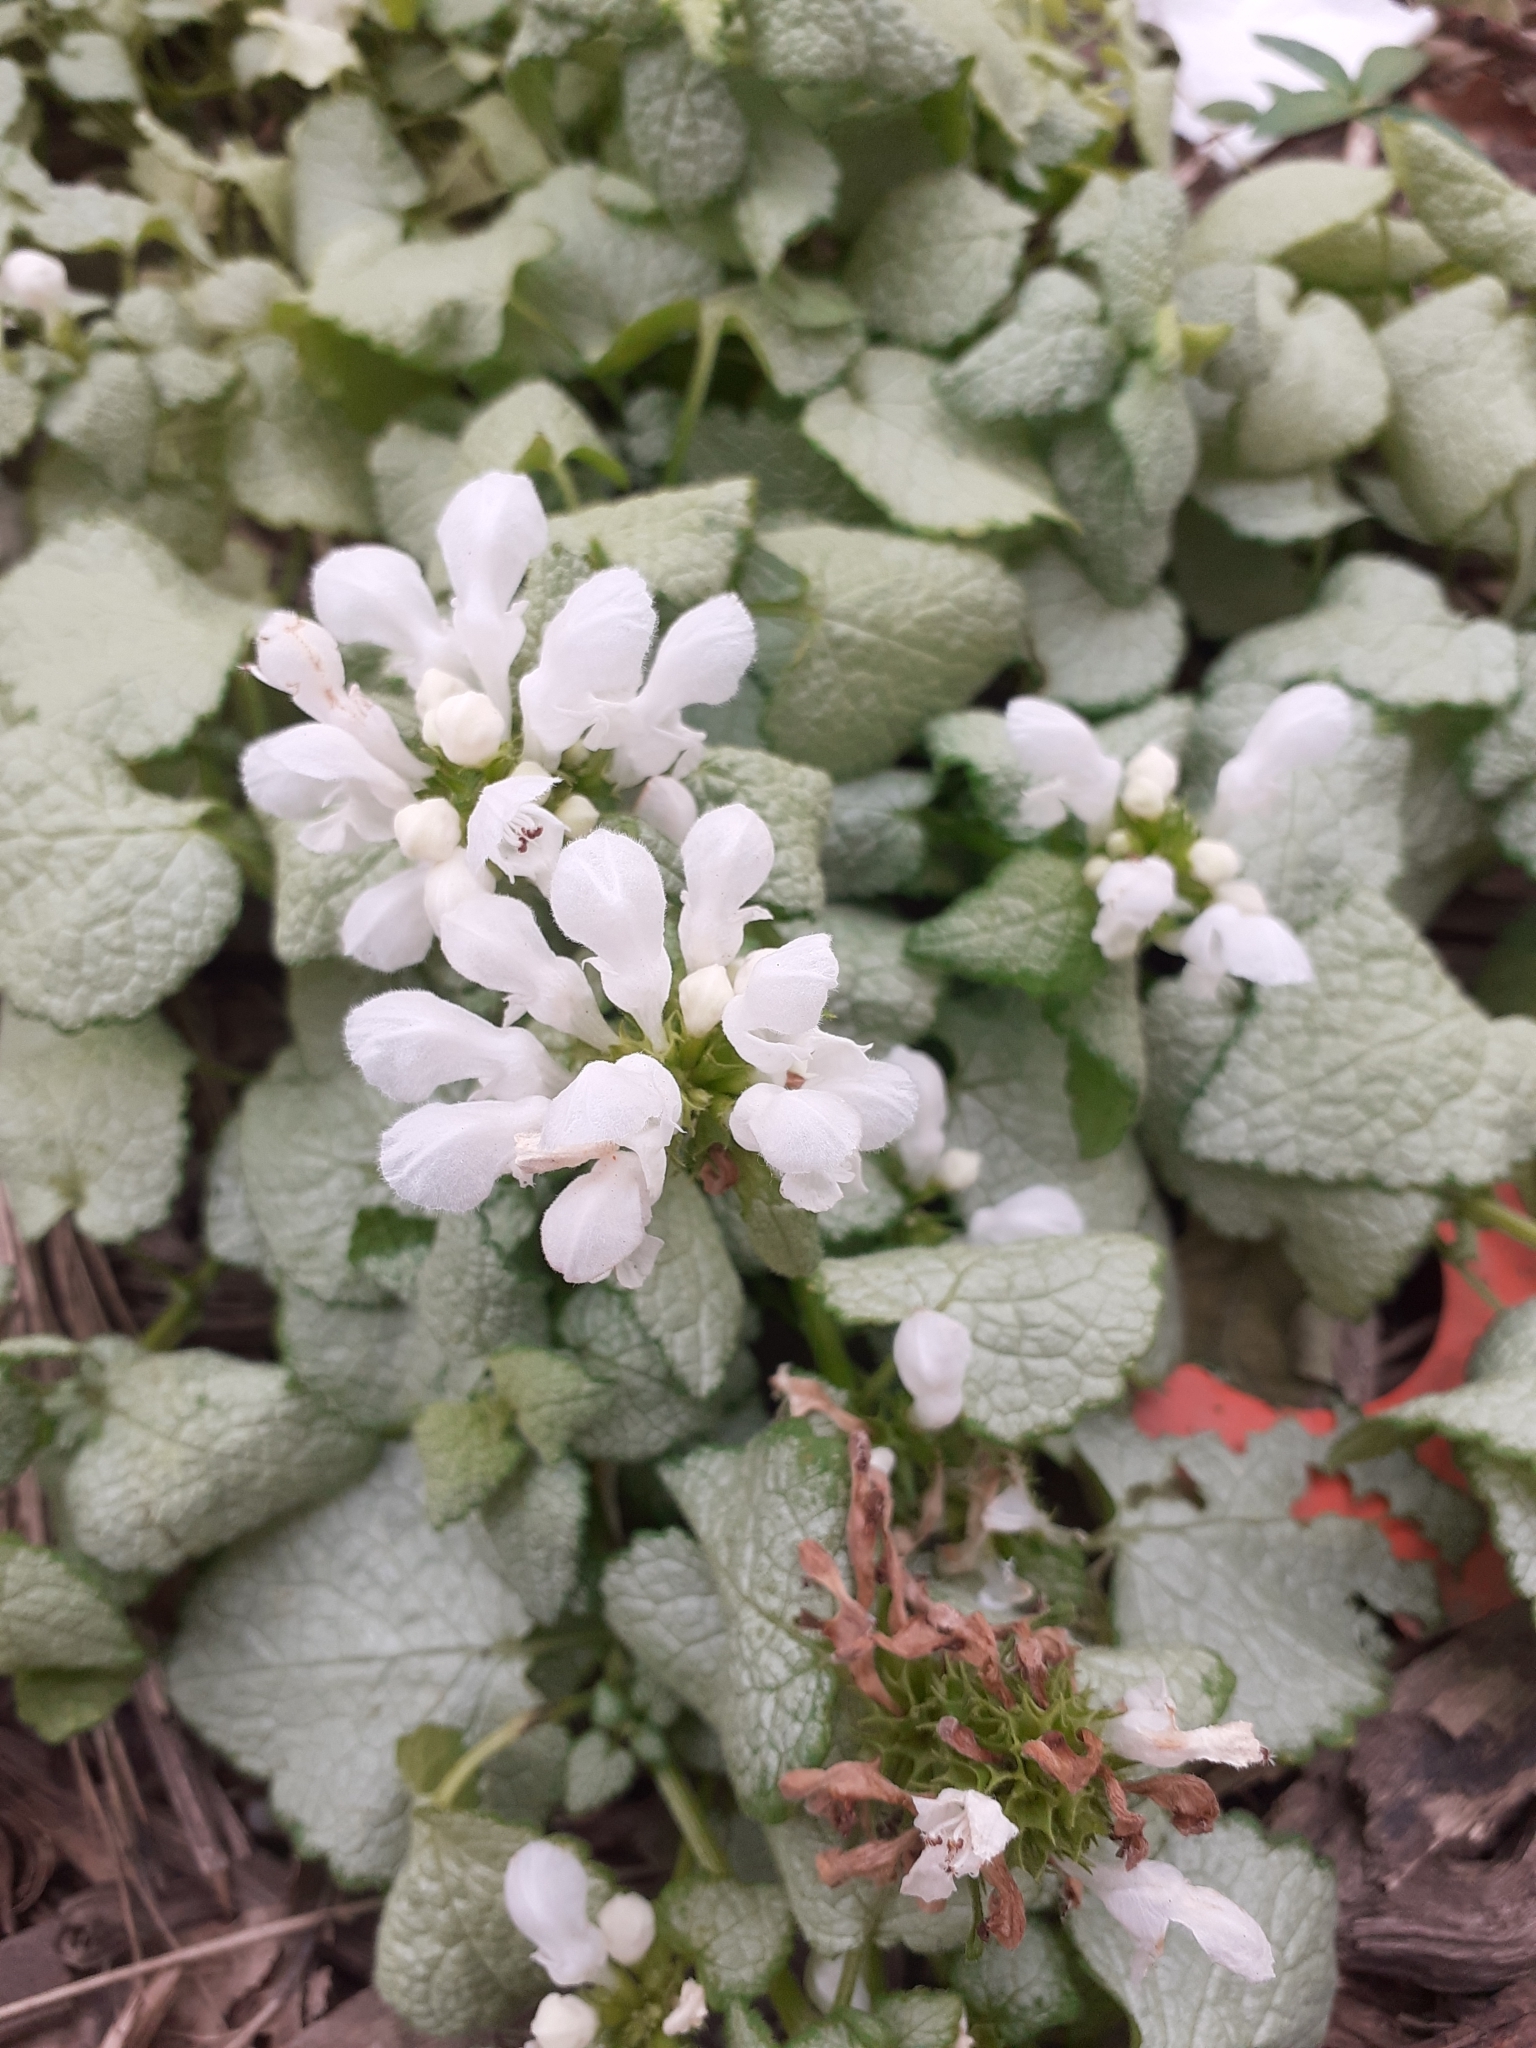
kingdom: Plantae
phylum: Tracheophyta
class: Magnoliopsida
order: Lamiales
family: Lamiaceae
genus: Lamium
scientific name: Lamium maculatum
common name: Spotted dead-nettle
